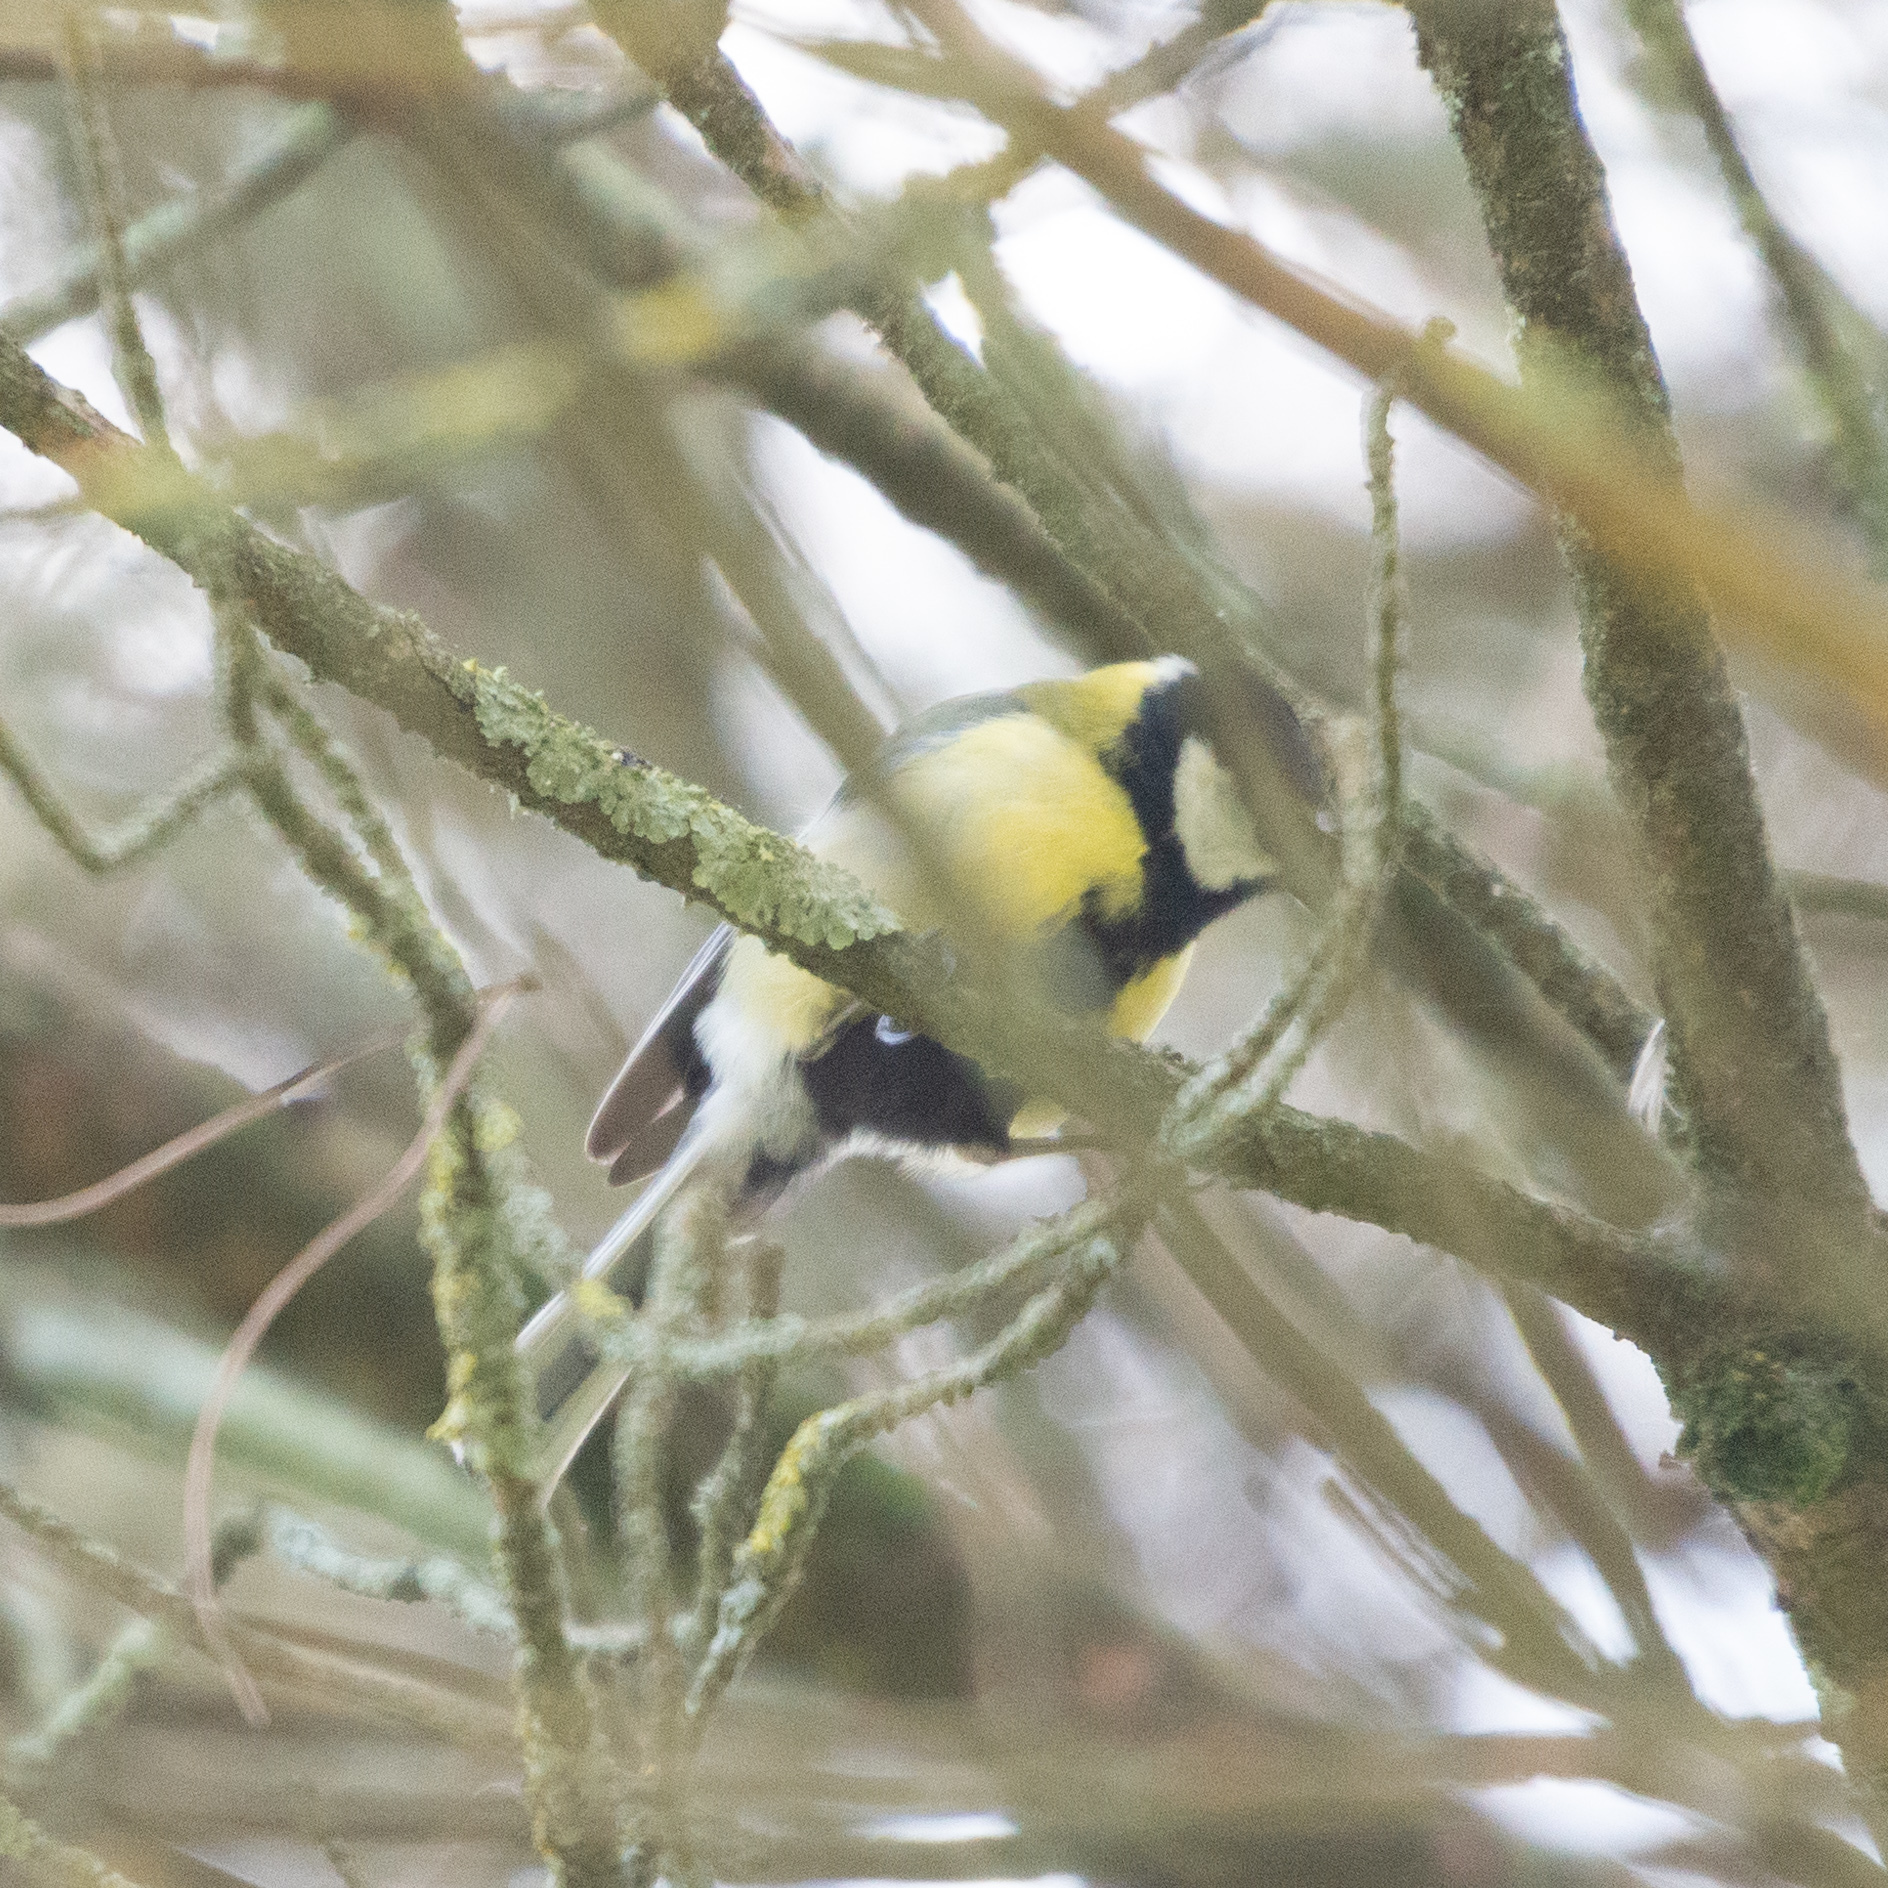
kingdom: Animalia
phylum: Chordata
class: Aves
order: Passeriformes
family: Paridae
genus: Parus
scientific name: Parus major
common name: Great tit
